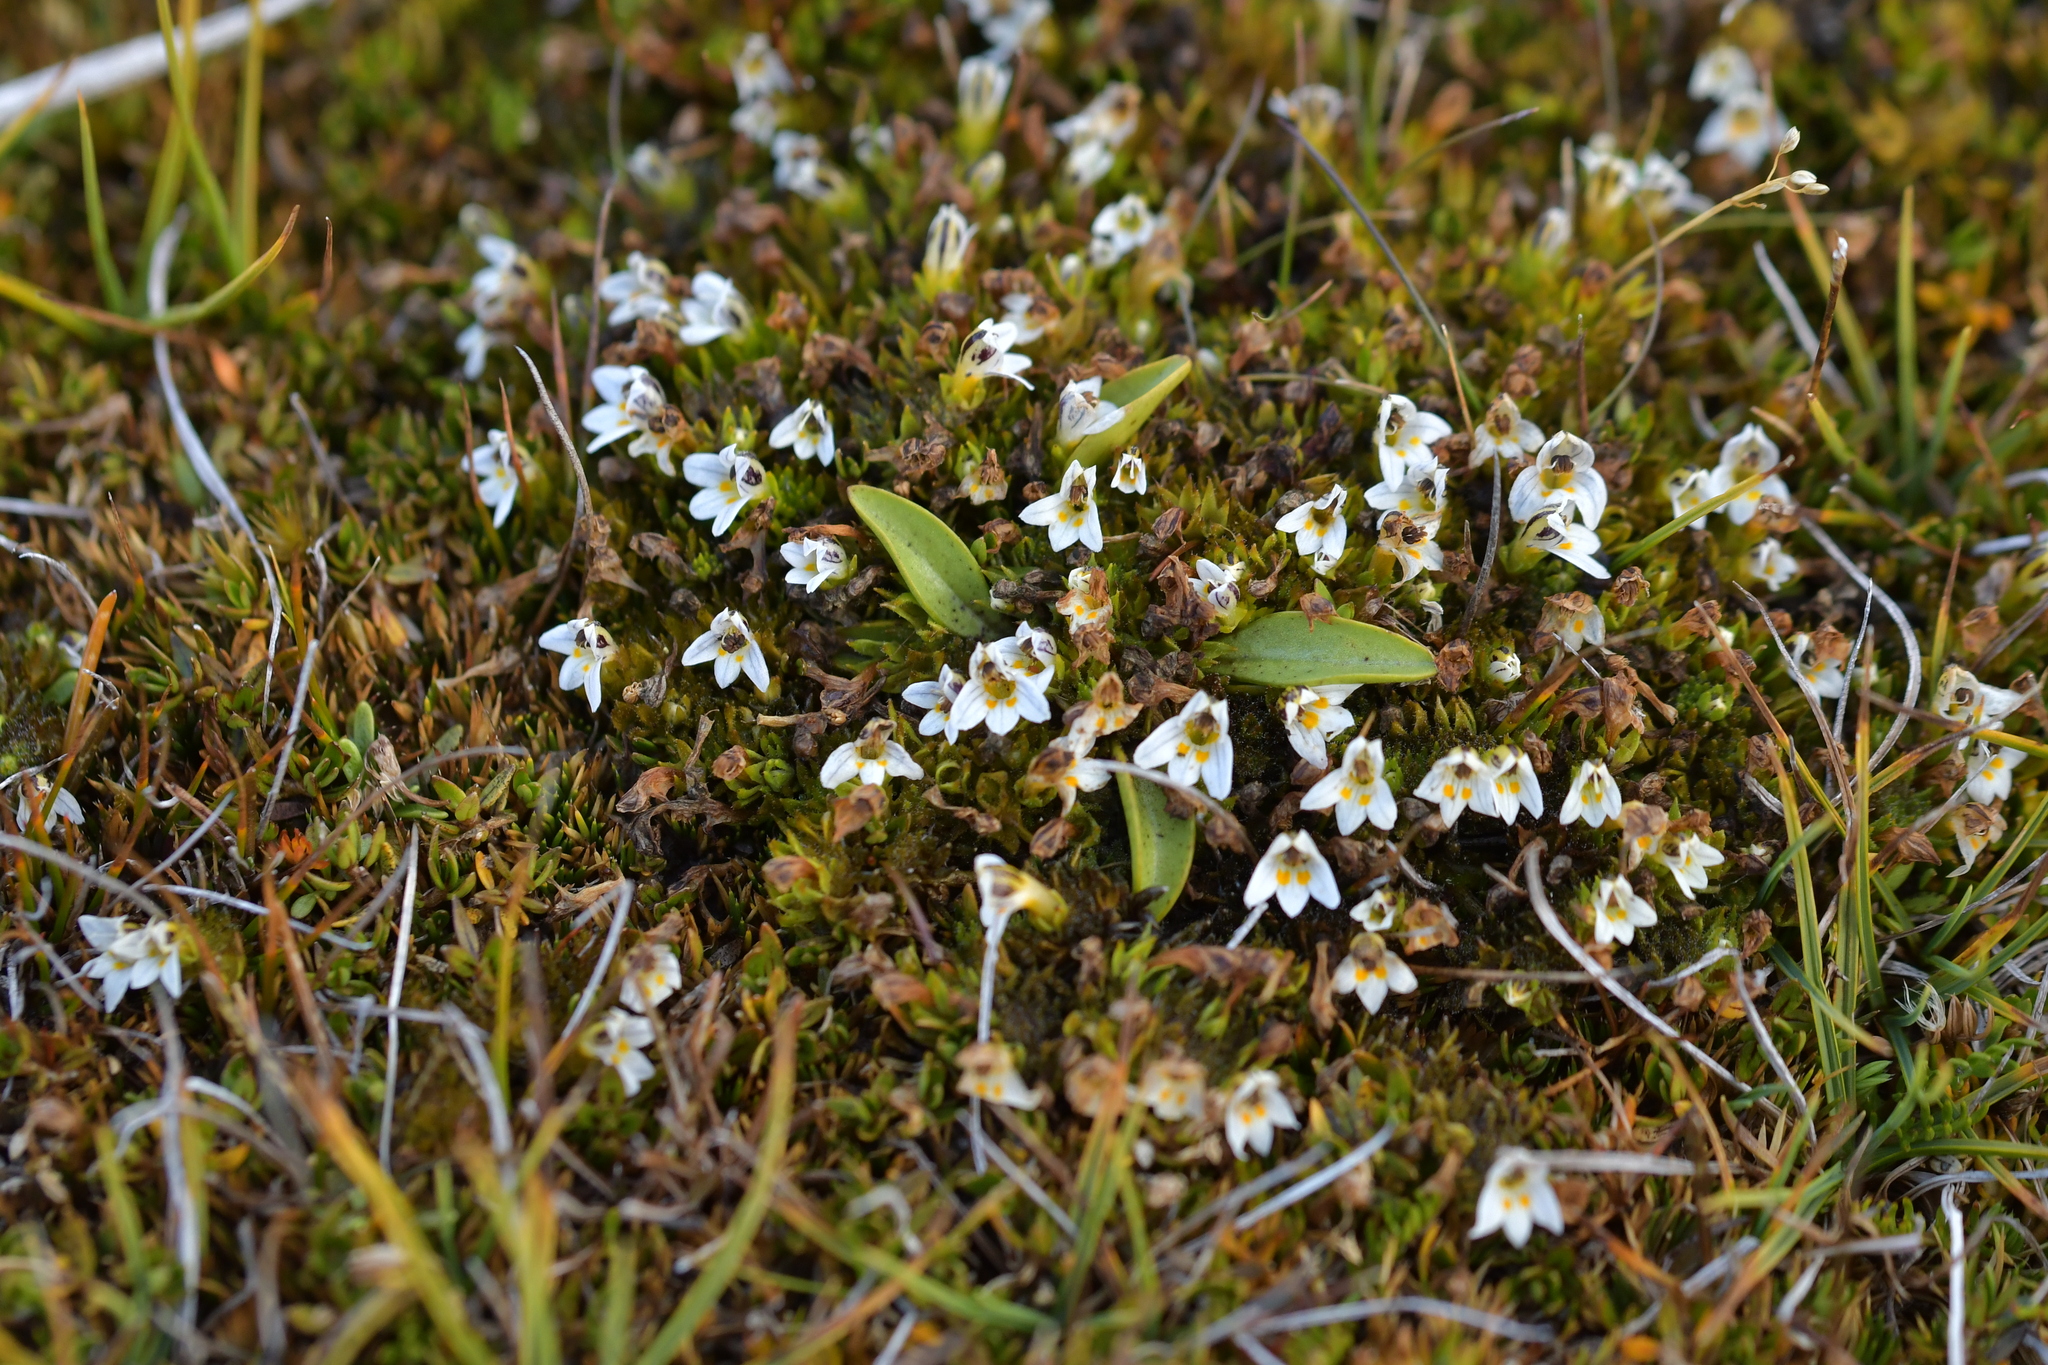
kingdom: Plantae
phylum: Tracheophyta
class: Magnoliopsida
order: Lamiales
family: Orobanchaceae
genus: Euphrasia
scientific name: Euphrasia dyeri
